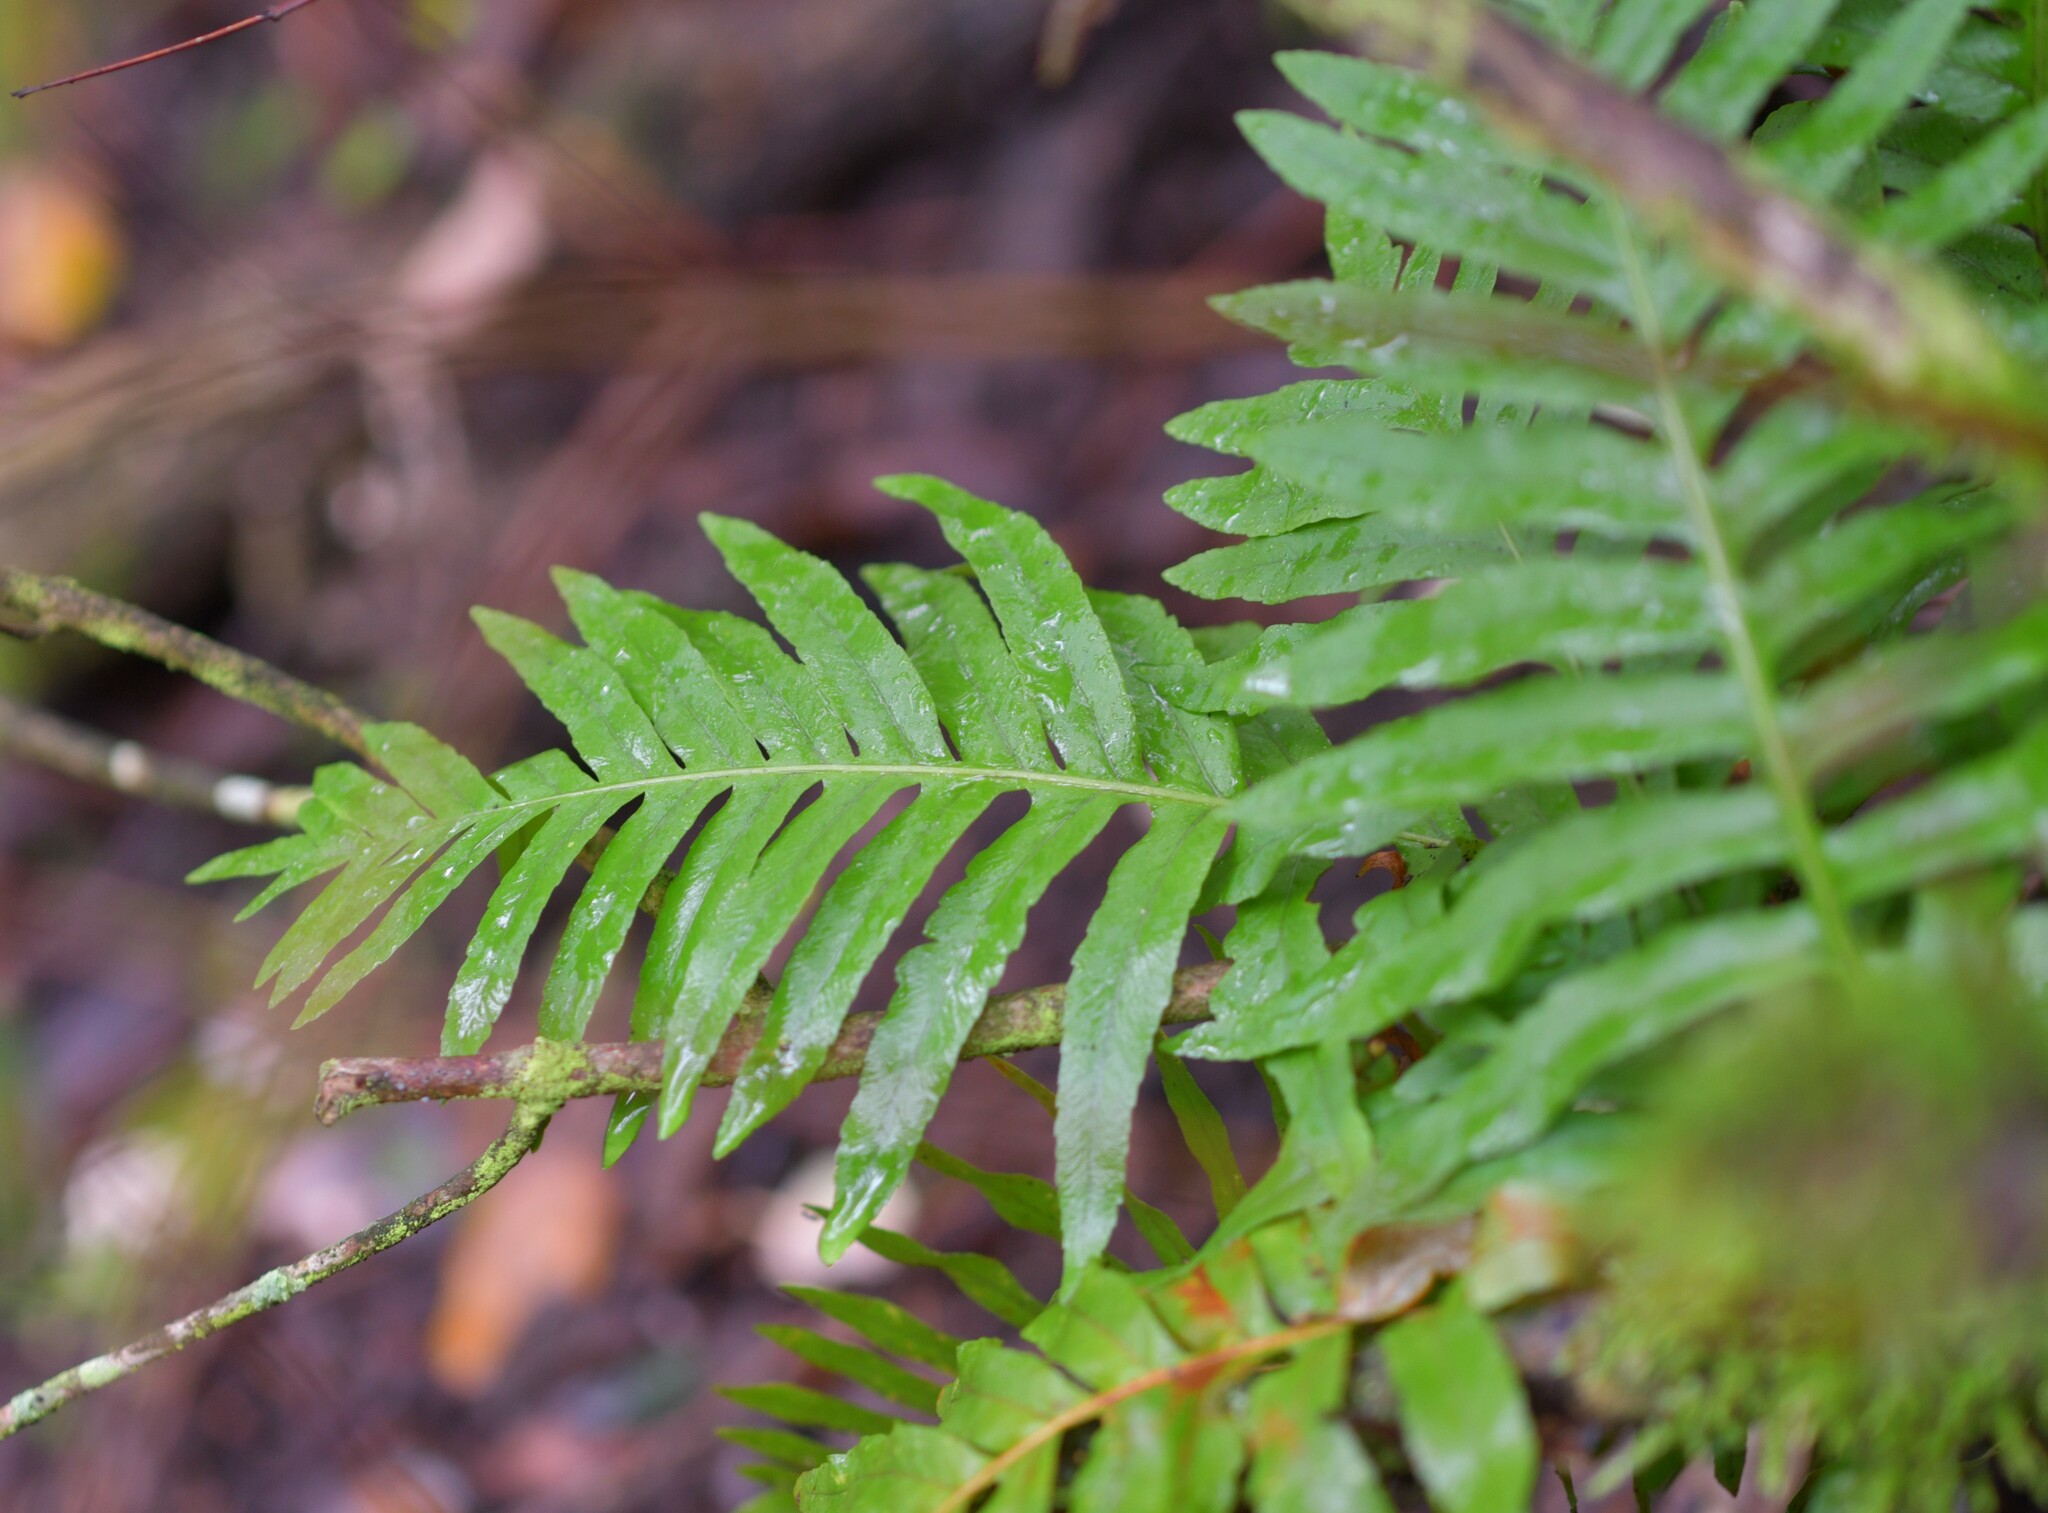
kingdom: Plantae
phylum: Tracheophyta
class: Polypodiopsida
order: Polypodiales
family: Polypodiaceae
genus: Polypodium
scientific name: Polypodium cambricum
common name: Southern polypody
